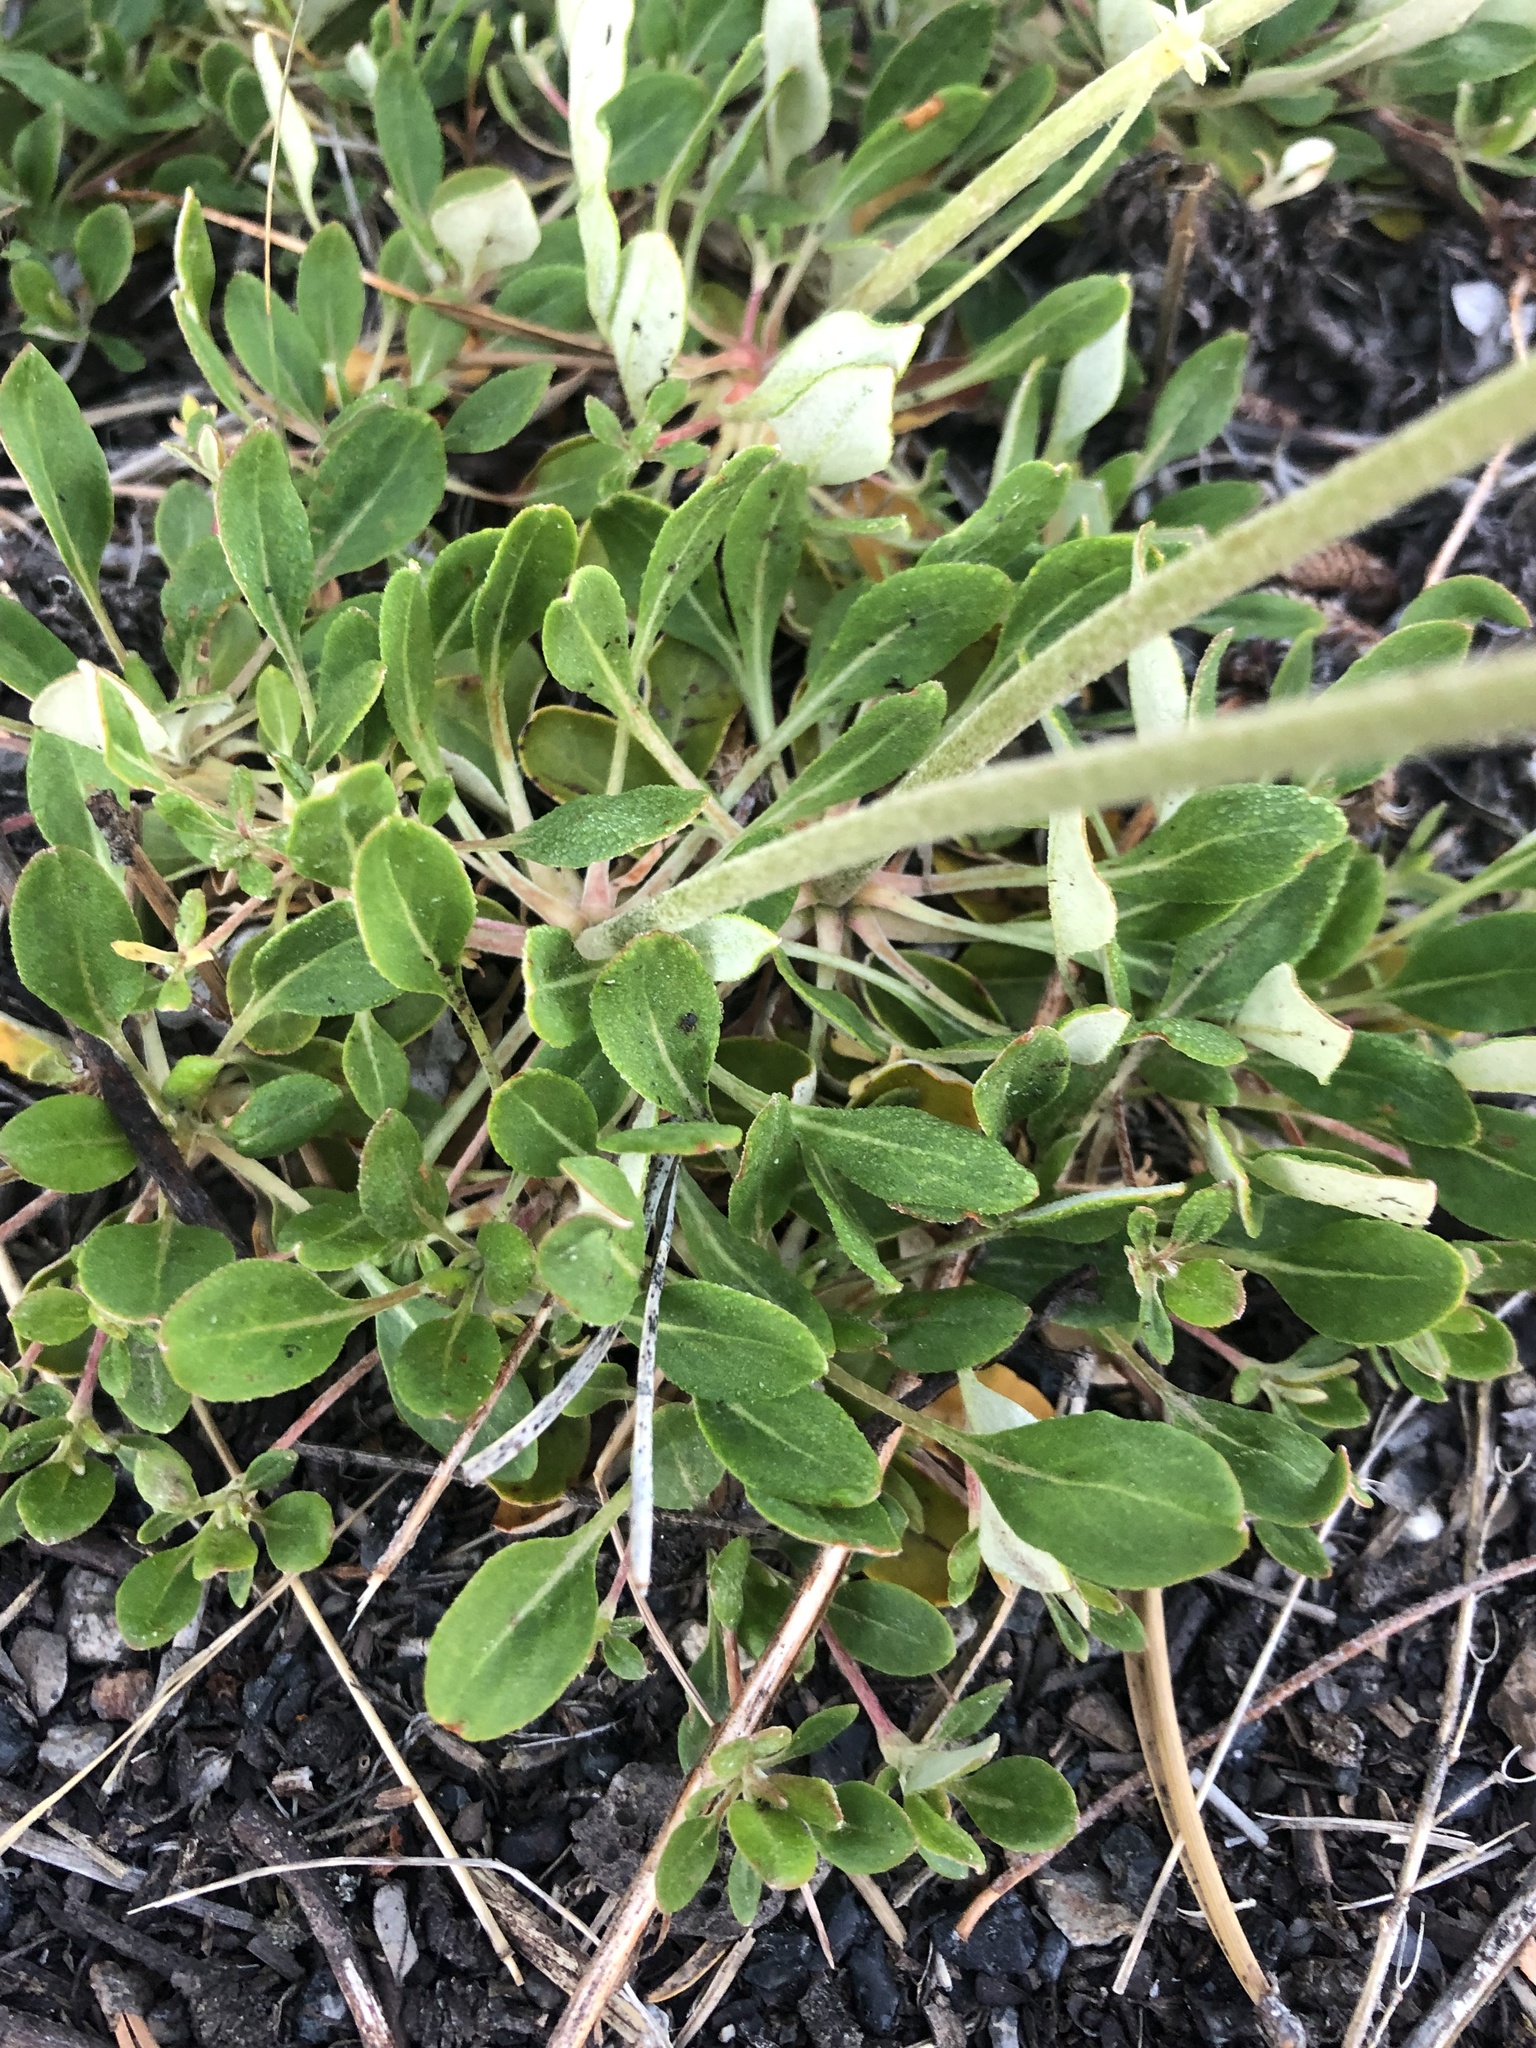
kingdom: Plantae
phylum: Tracheophyta
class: Magnoliopsida
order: Caryophyllales
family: Polygonaceae
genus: Eriogonum
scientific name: Eriogonum umbellatum
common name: Sulfur-buckwheat
